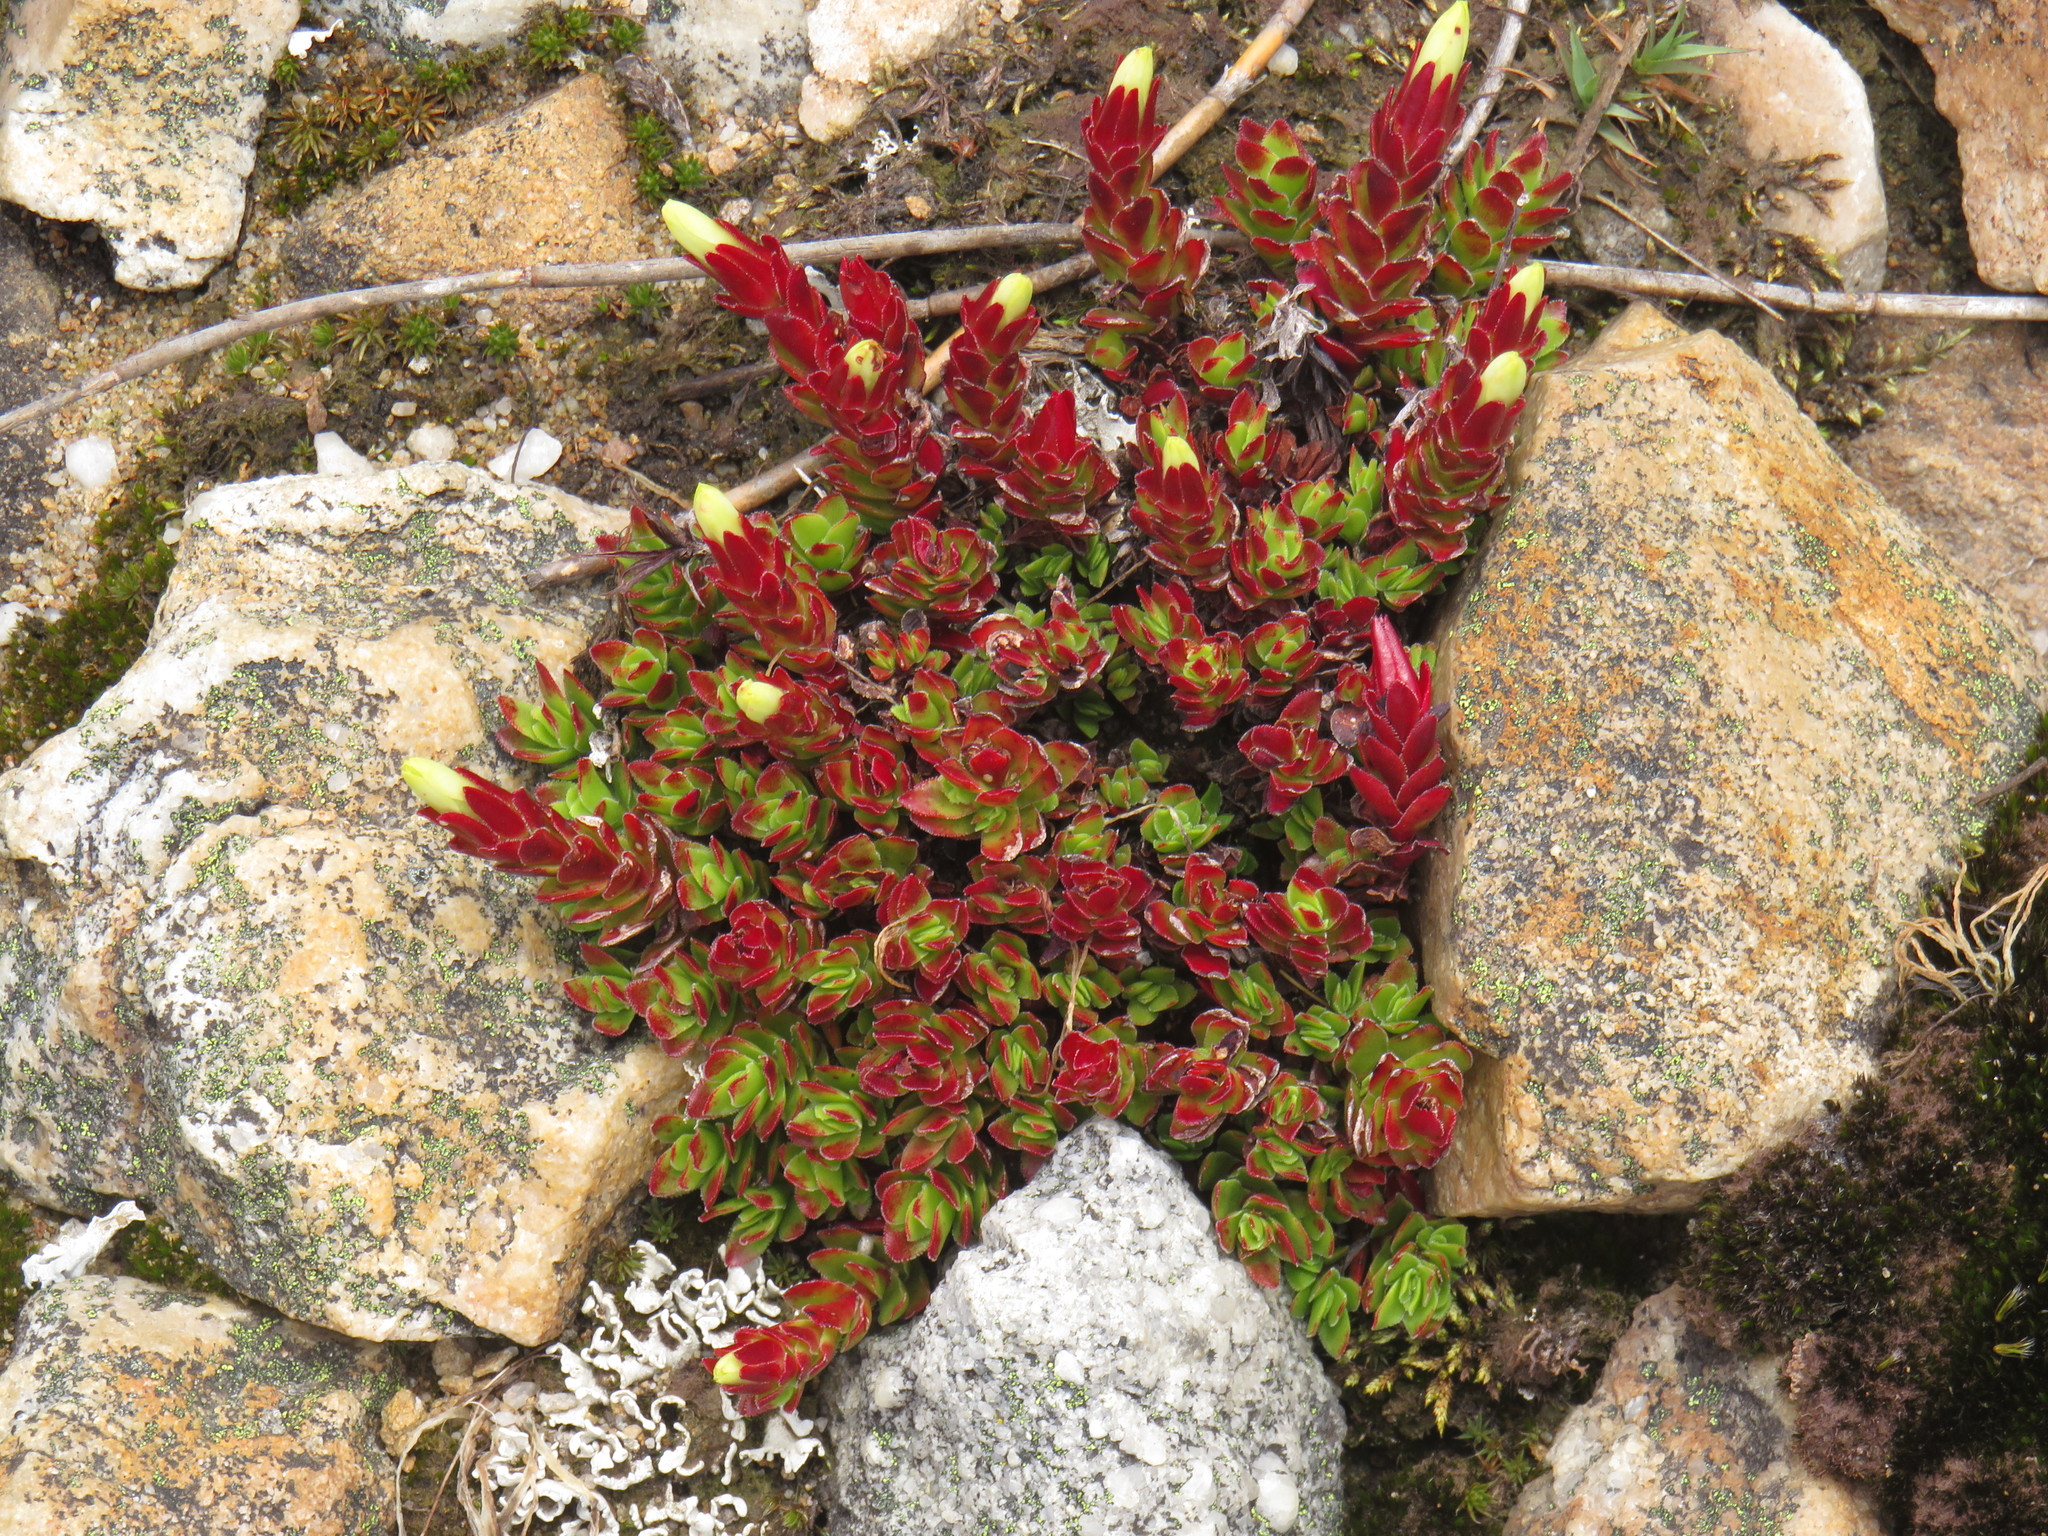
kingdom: Plantae
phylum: Tracheophyta
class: Magnoliopsida
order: Saxifragales
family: Crassulaceae
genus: Crassula
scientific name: Crassula obtusa
